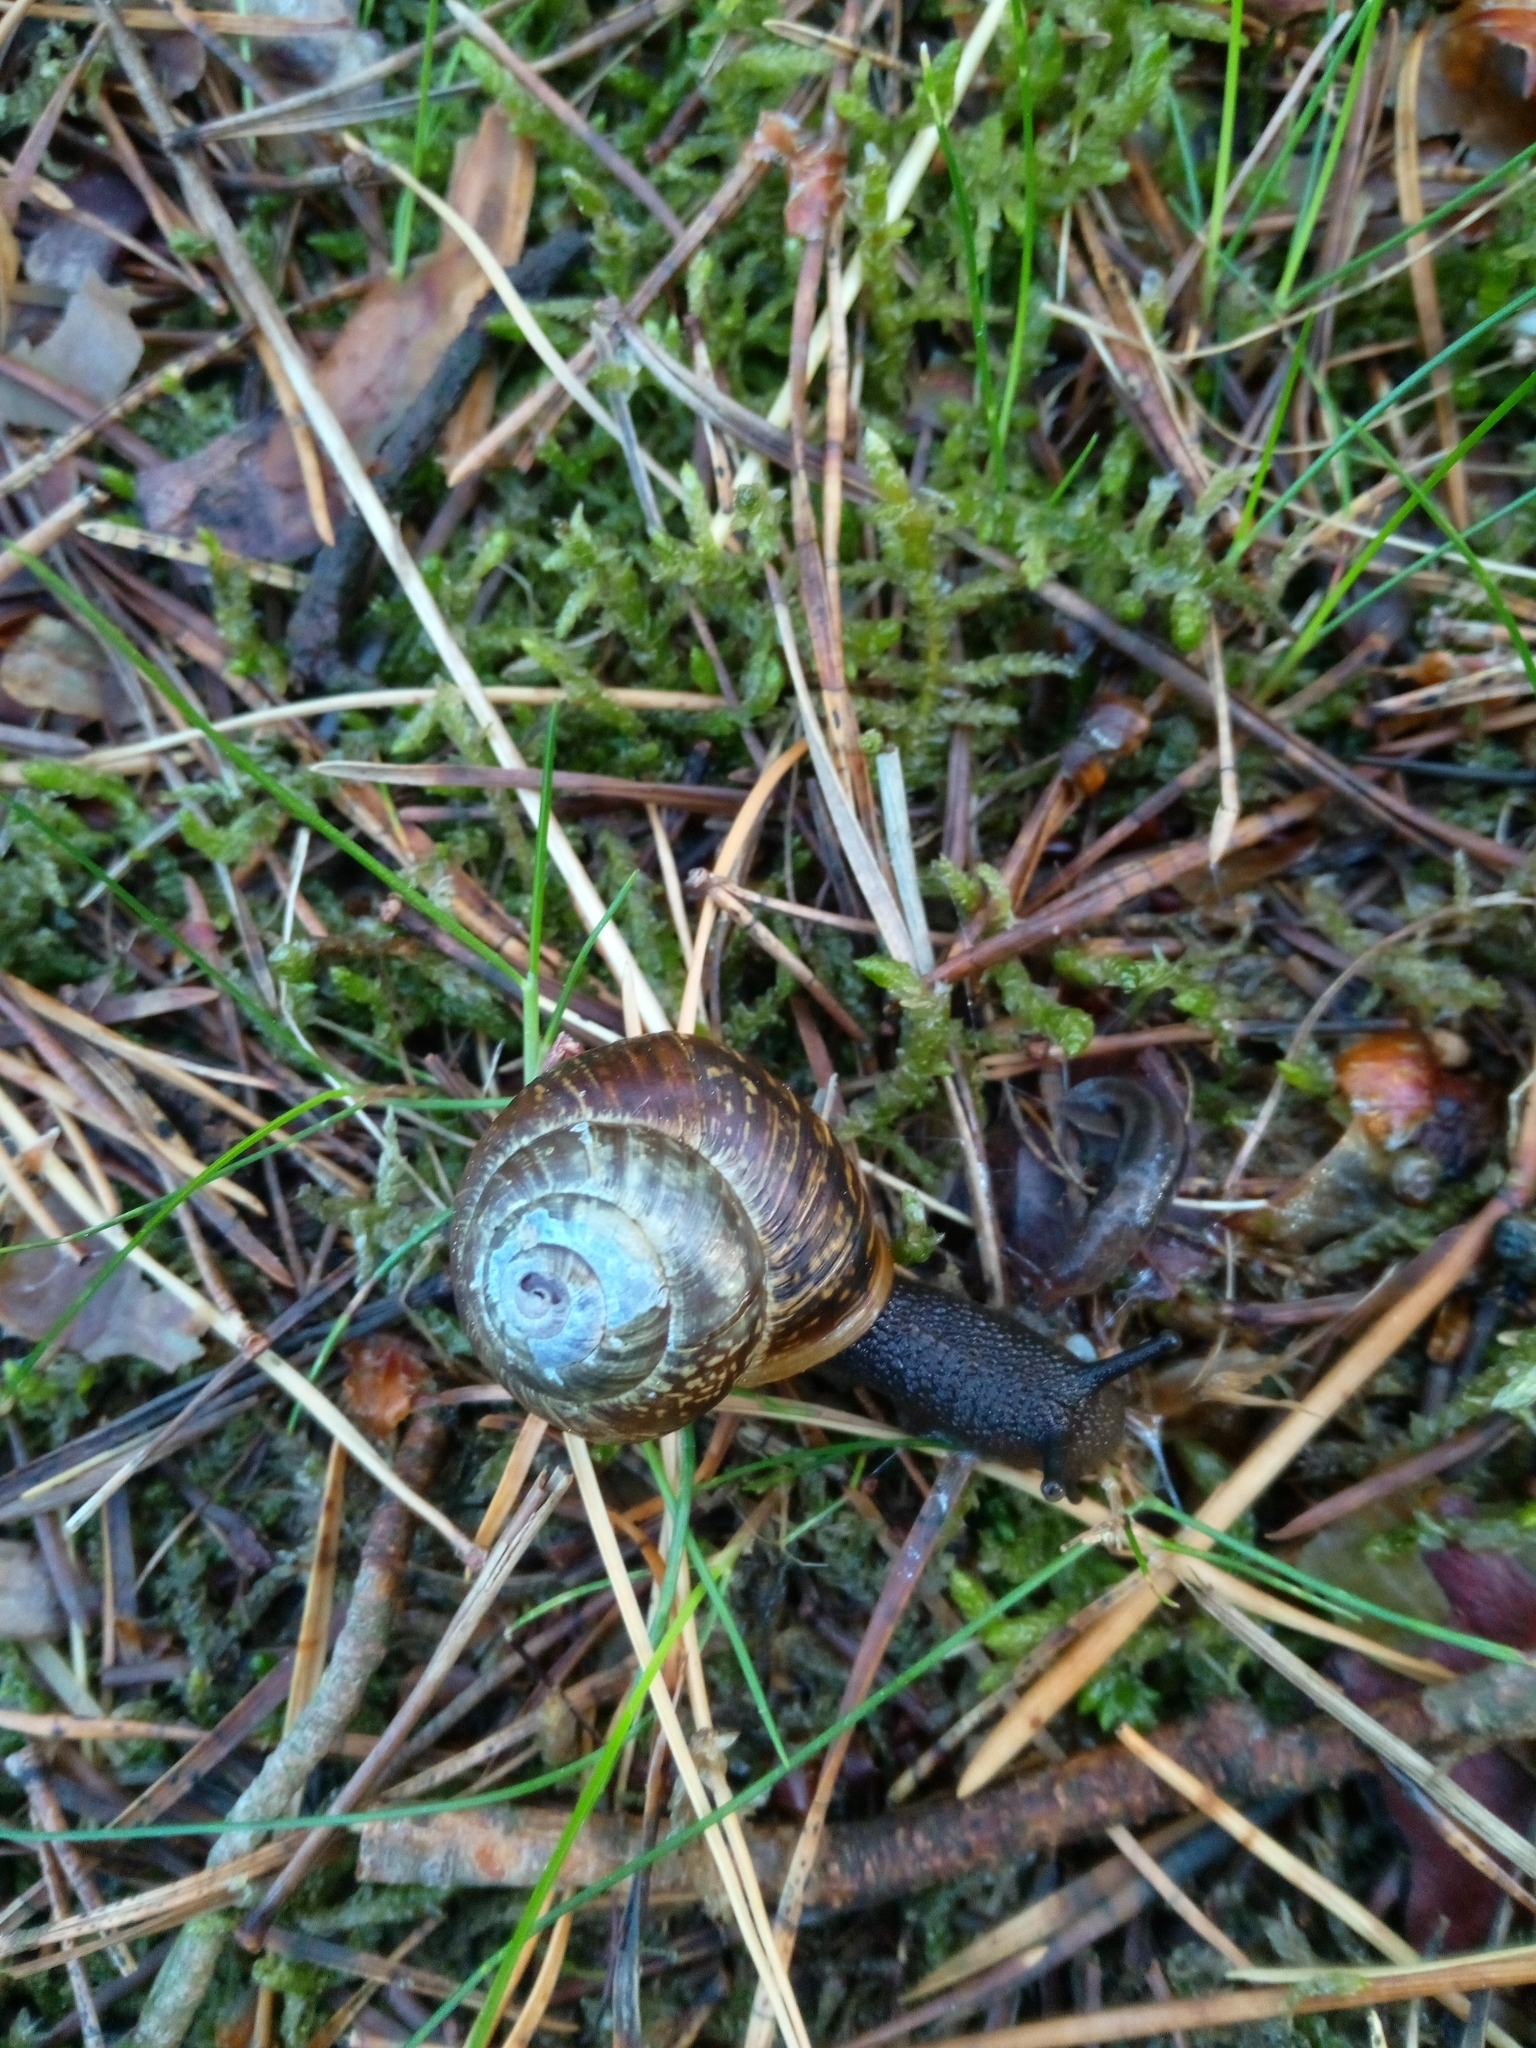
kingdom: Animalia
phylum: Mollusca
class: Gastropoda
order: Stylommatophora
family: Helicidae
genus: Arianta
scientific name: Arianta arbustorum
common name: Copse snail
